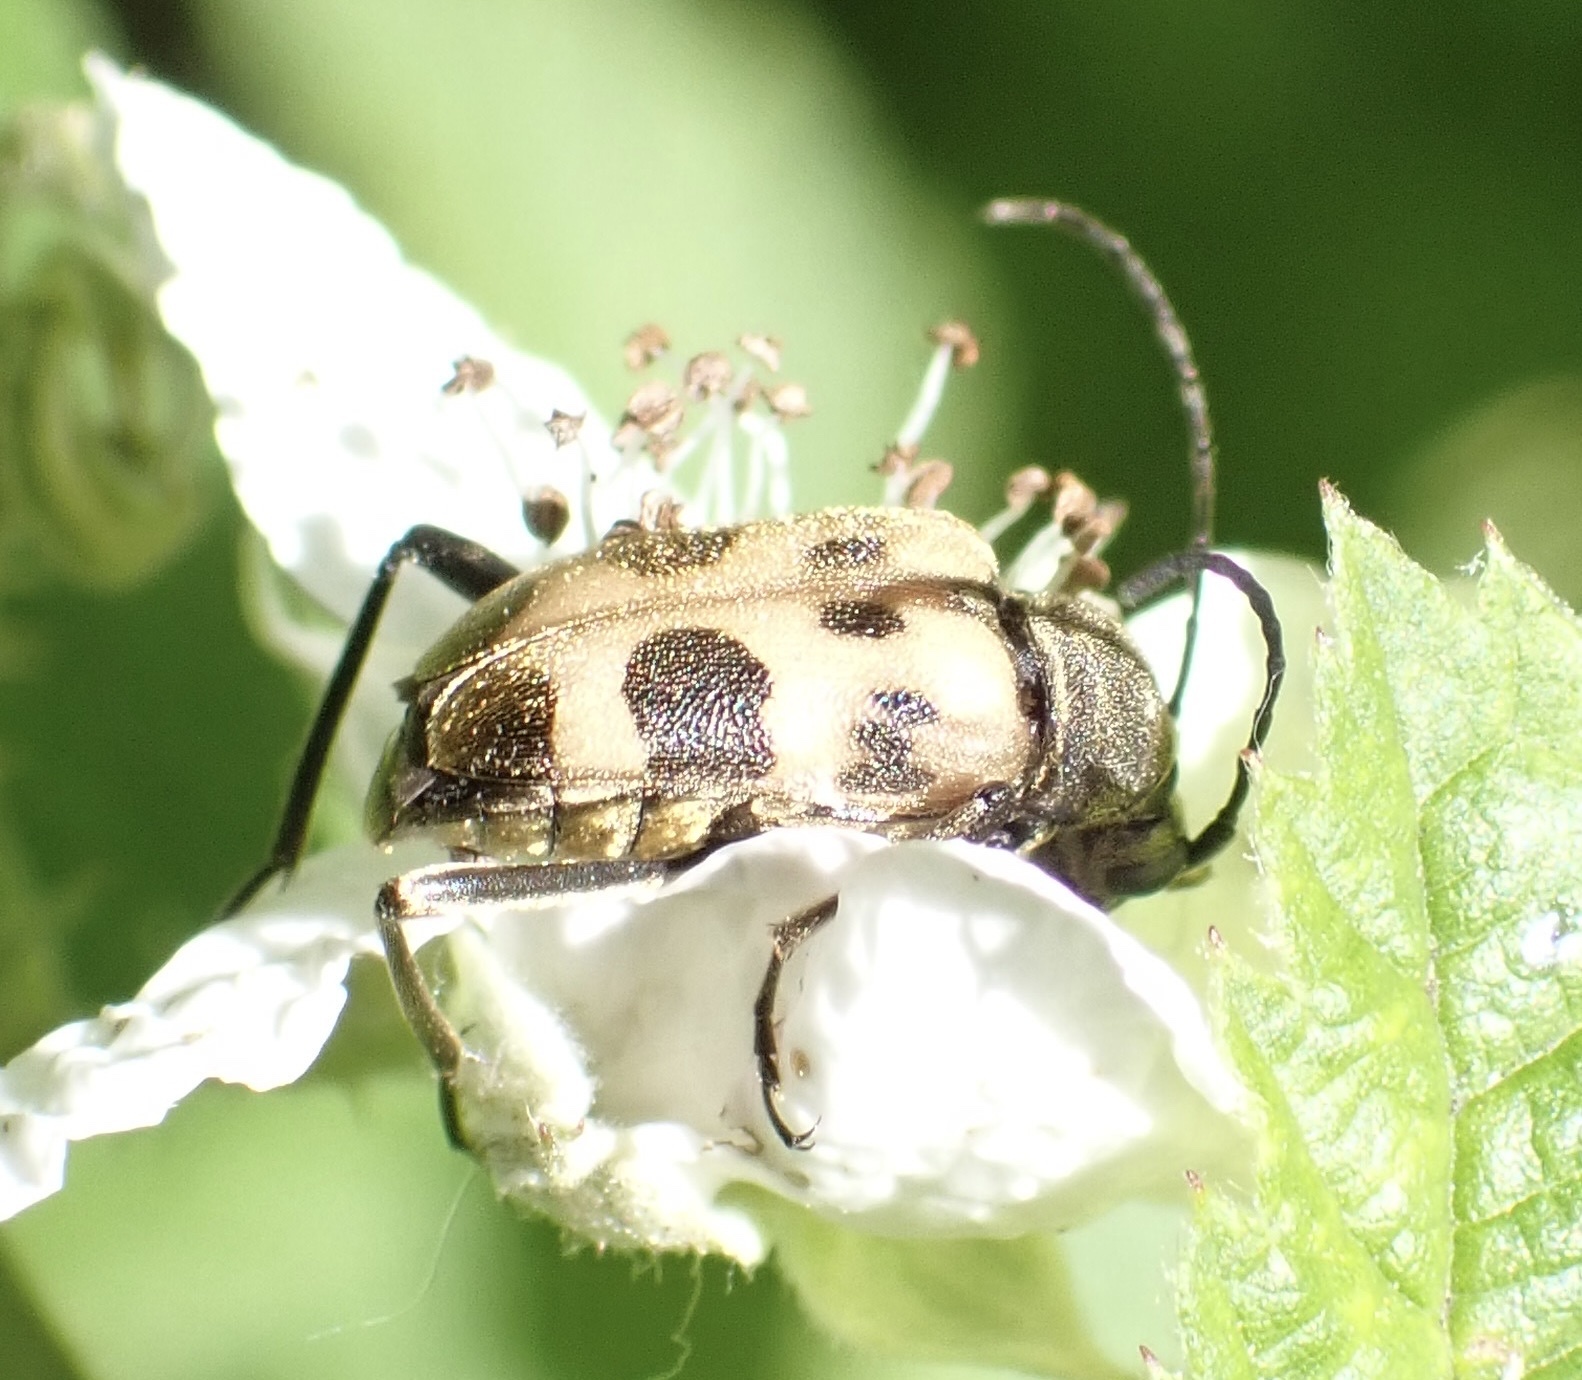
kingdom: Animalia
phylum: Arthropoda
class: Insecta
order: Coleoptera
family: Cerambycidae
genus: Pachytodes
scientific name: Pachytodes cerambyciformis
